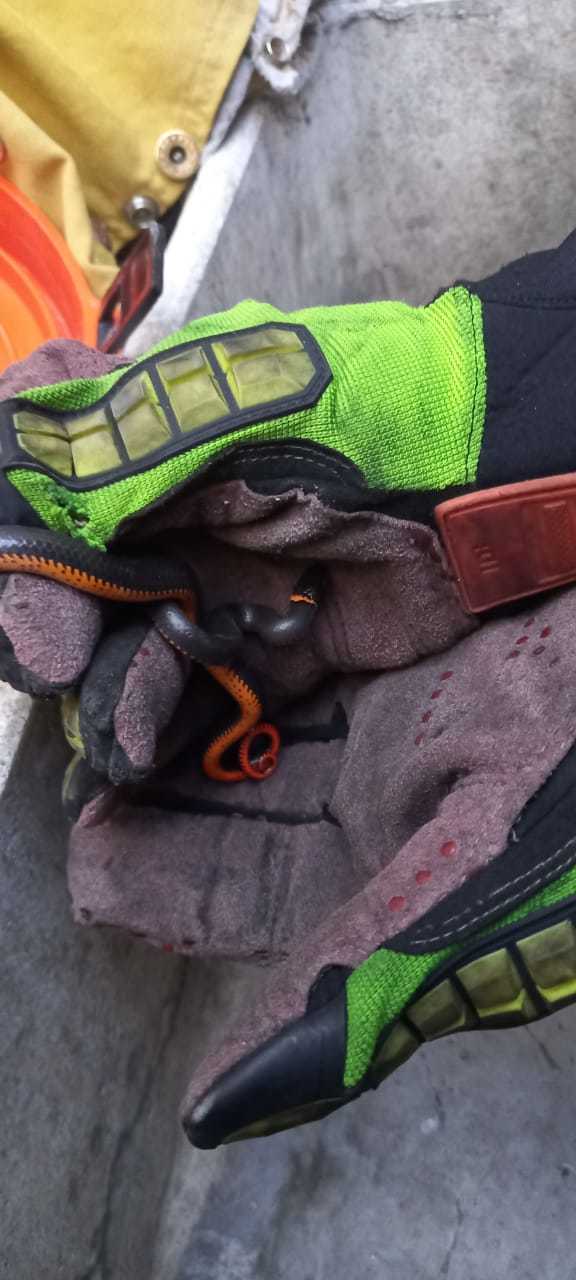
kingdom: Animalia
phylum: Chordata
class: Squamata
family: Colubridae
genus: Diadophis
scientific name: Diadophis punctatus
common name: Ringneck snake
